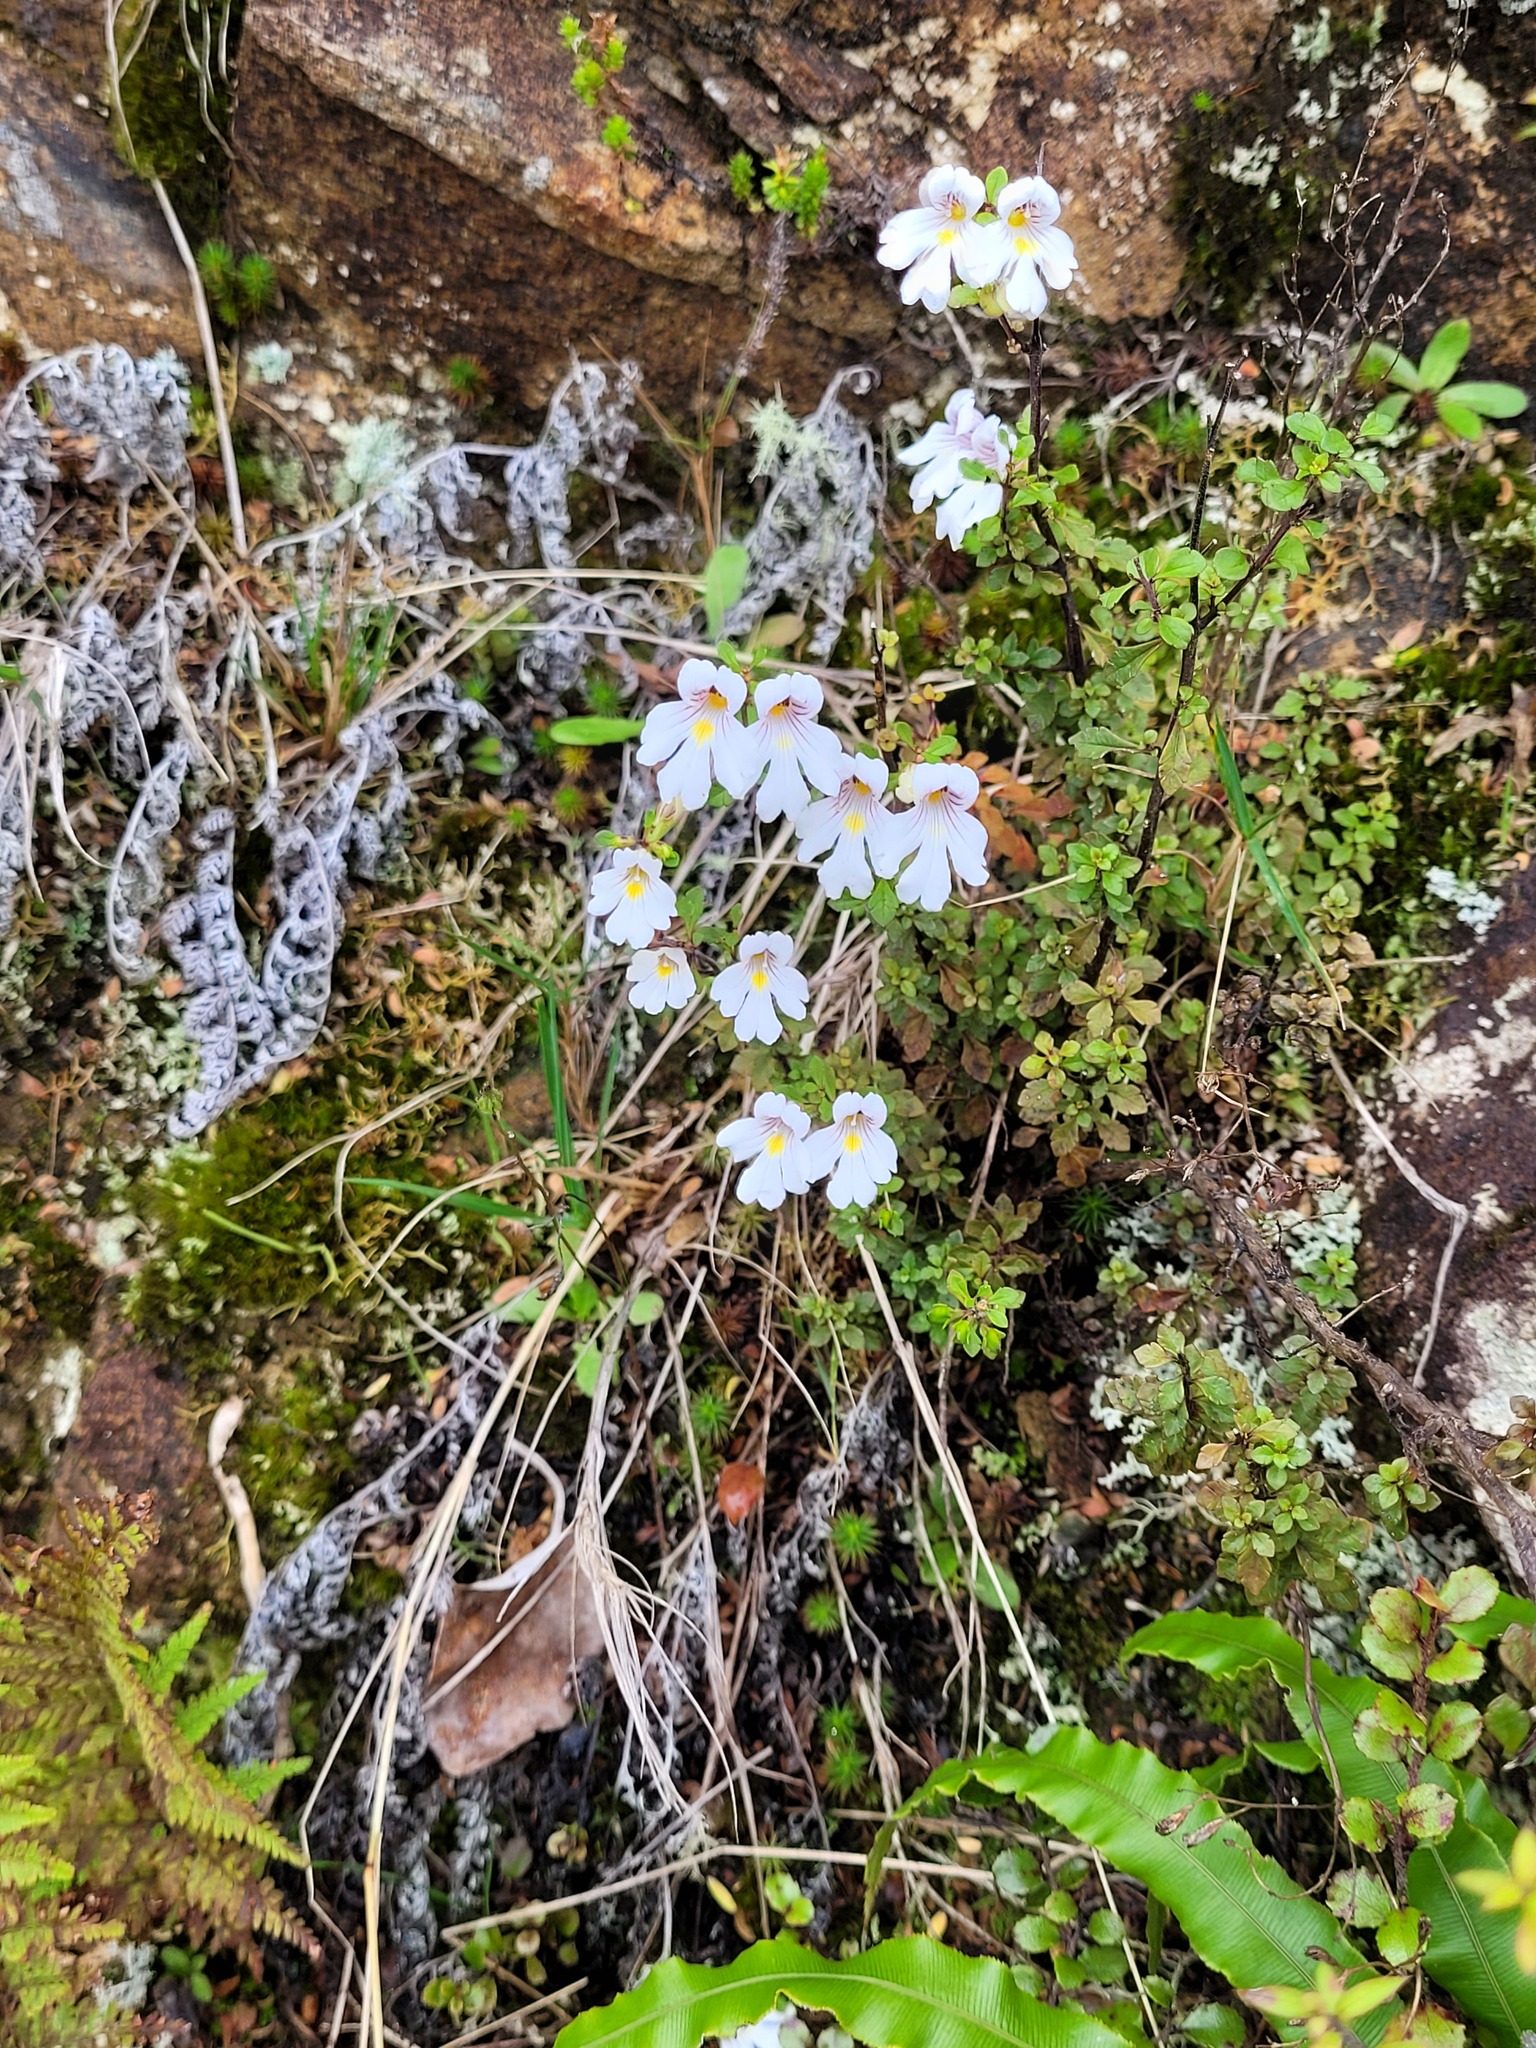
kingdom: Plantae
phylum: Tracheophyta
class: Magnoliopsida
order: Lamiales
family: Orobanchaceae
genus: Euphrasia
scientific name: Euphrasia cuneata
